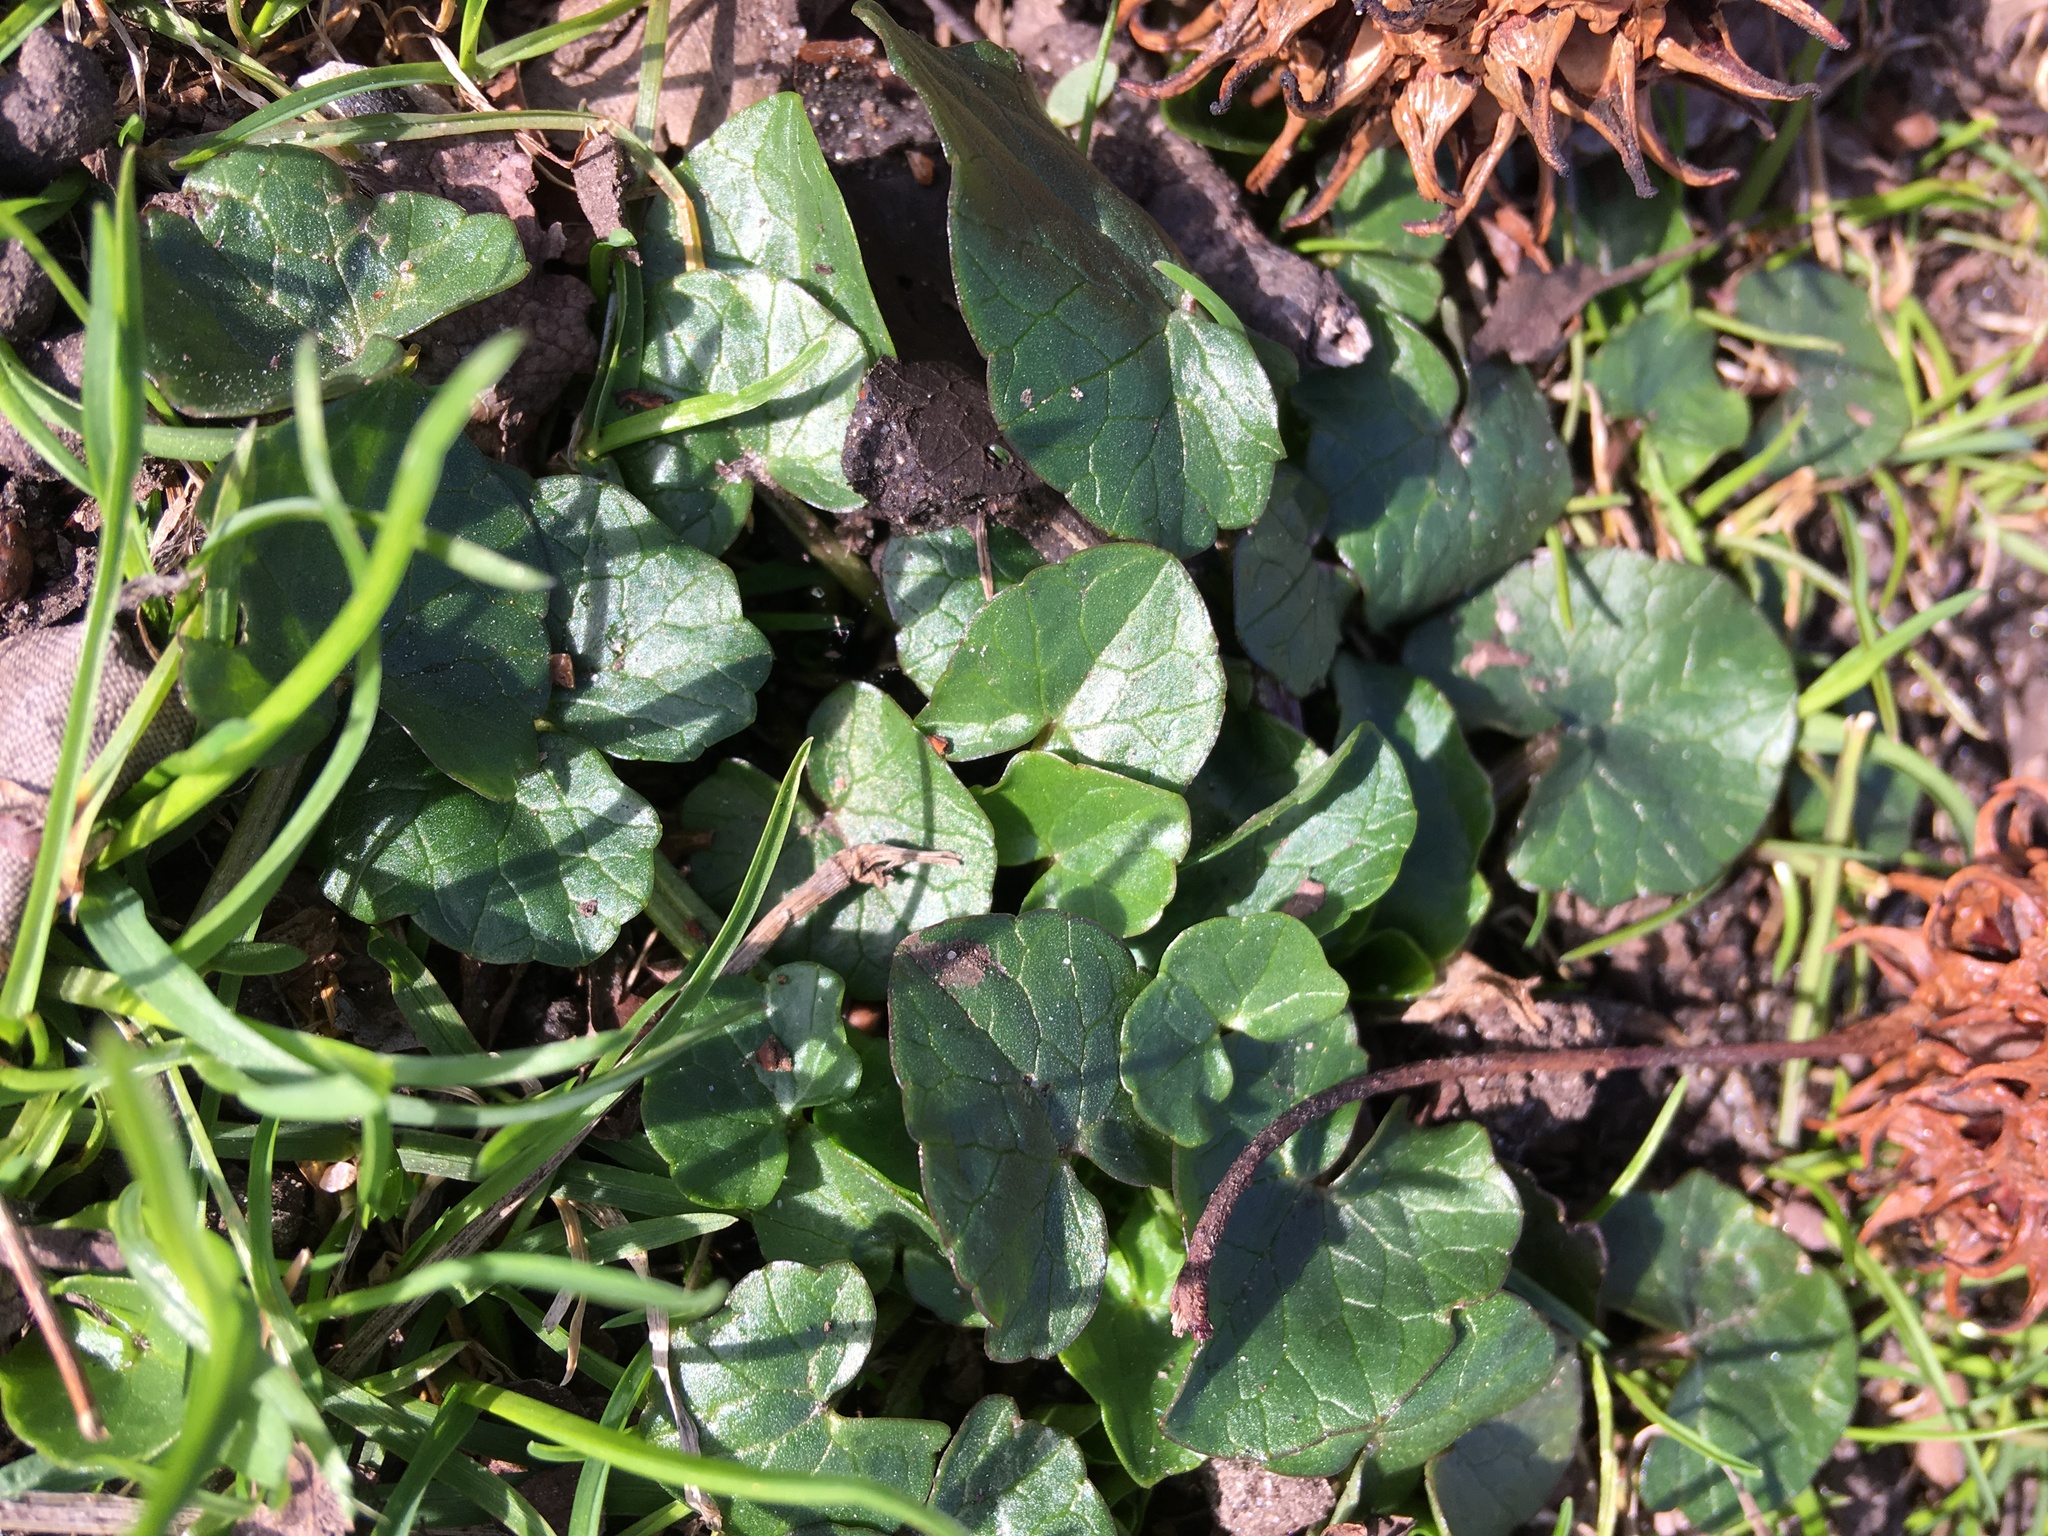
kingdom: Plantae
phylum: Tracheophyta
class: Magnoliopsida
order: Ranunculales
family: Ranunculaceae
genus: Ficaria
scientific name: Ficaria verna
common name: Lesser celandine
